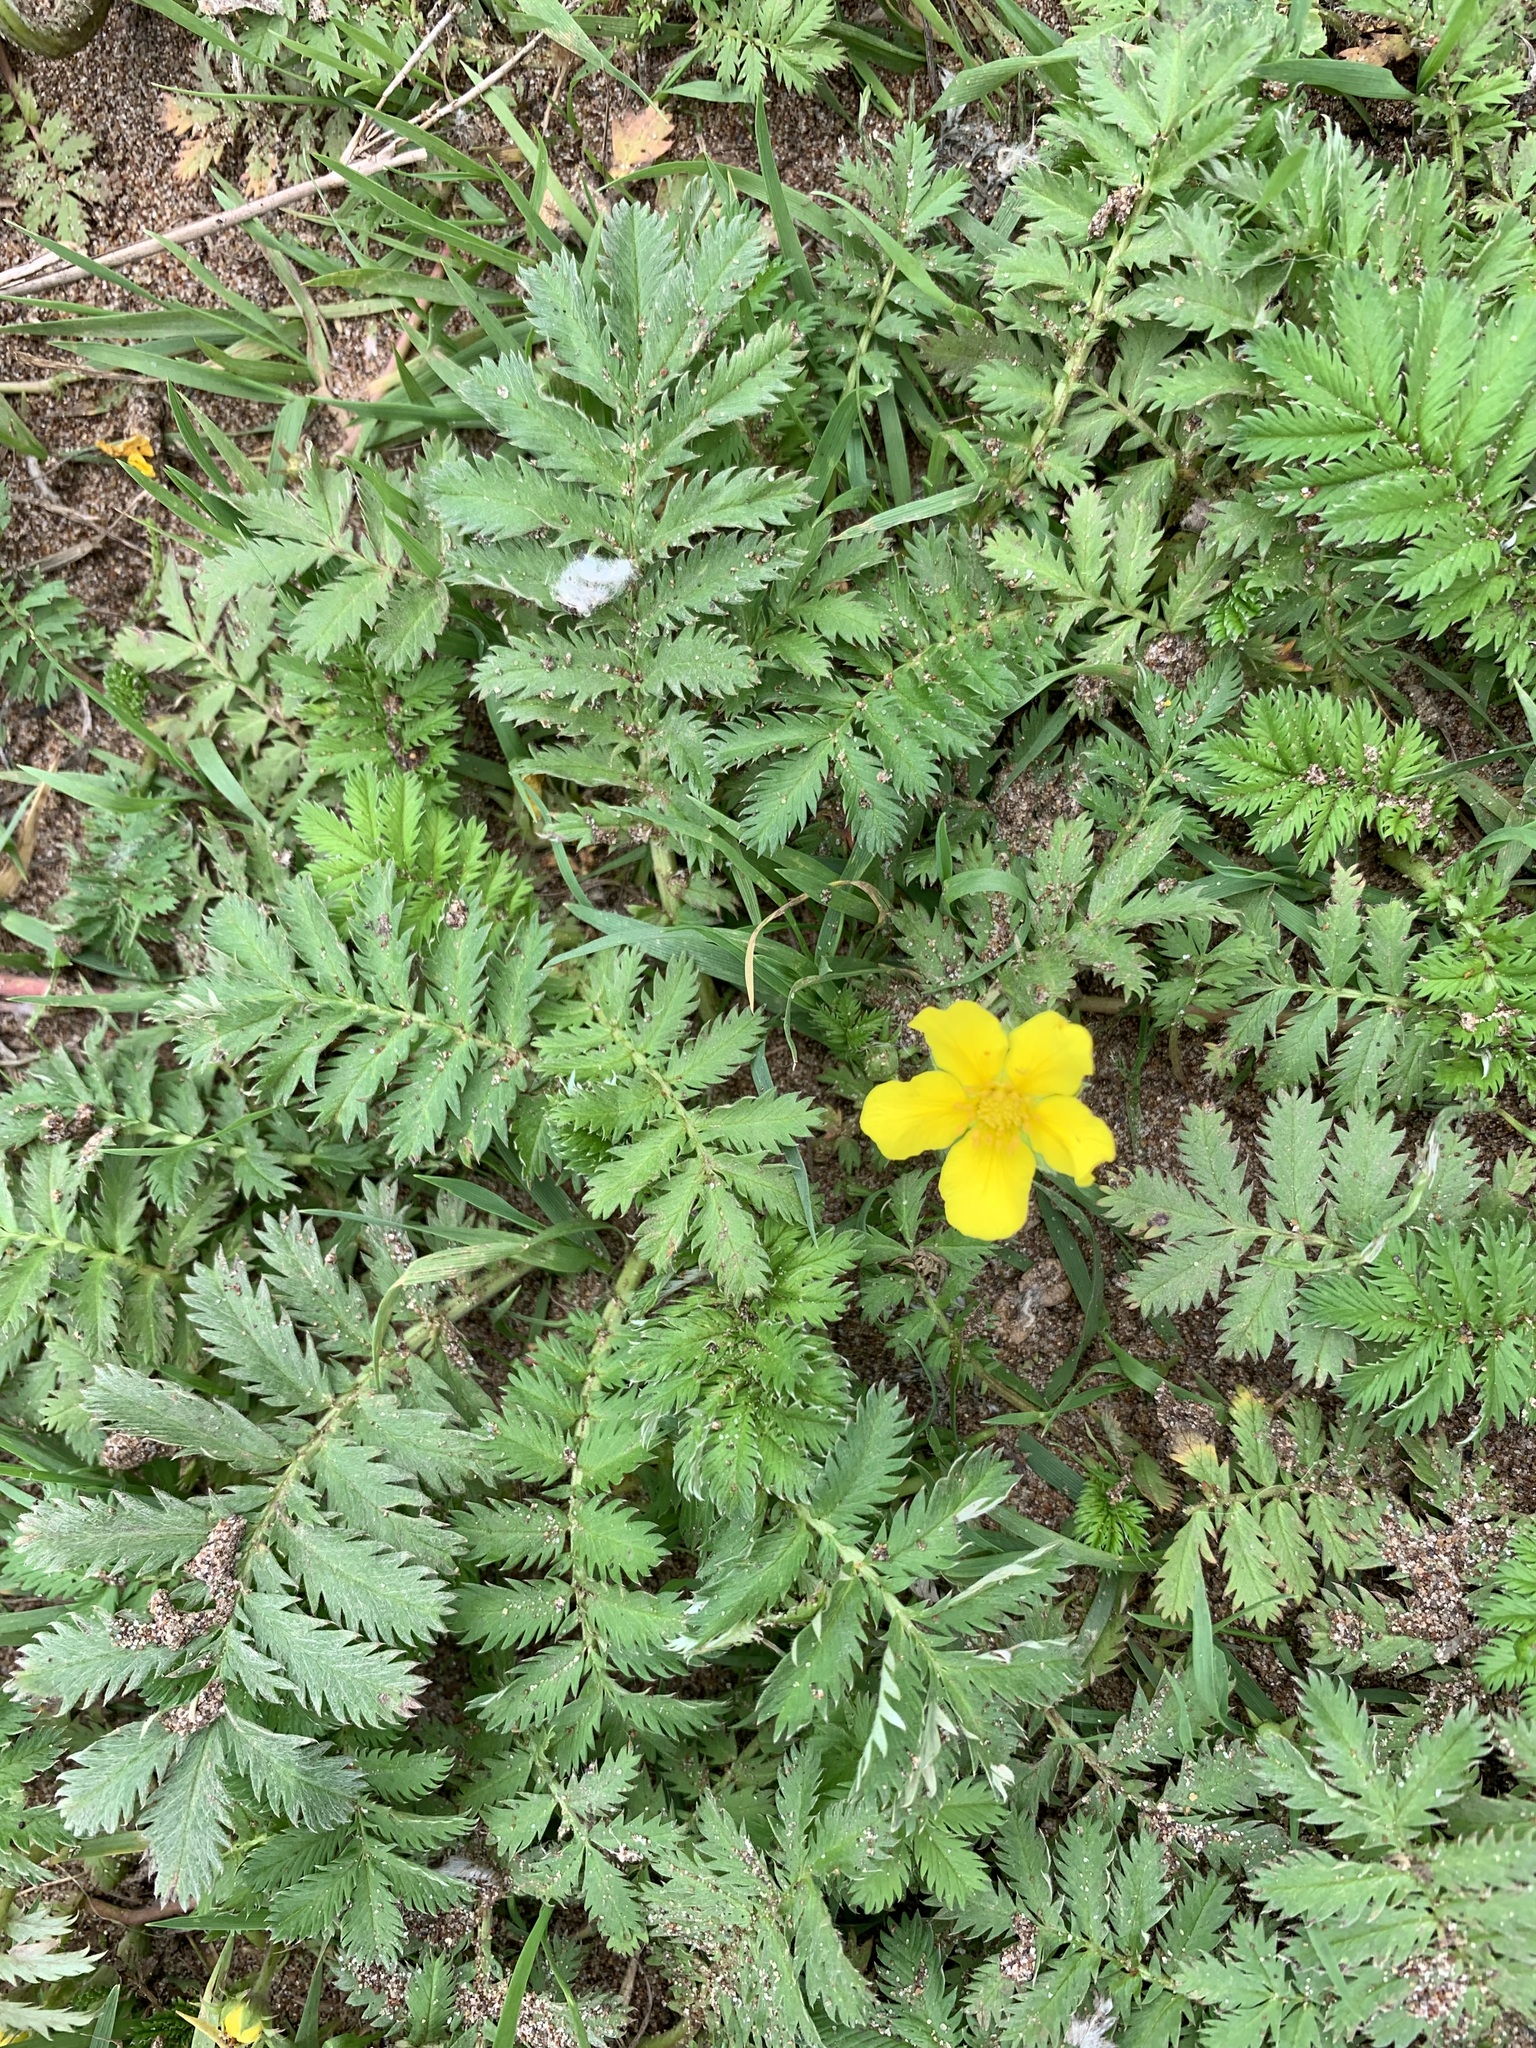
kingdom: Plantae
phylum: Tracheophyta
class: Magnoliopsida
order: Rosales
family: Rosaceae
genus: Argentina
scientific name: Argentina anserina
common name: Common silverweed
